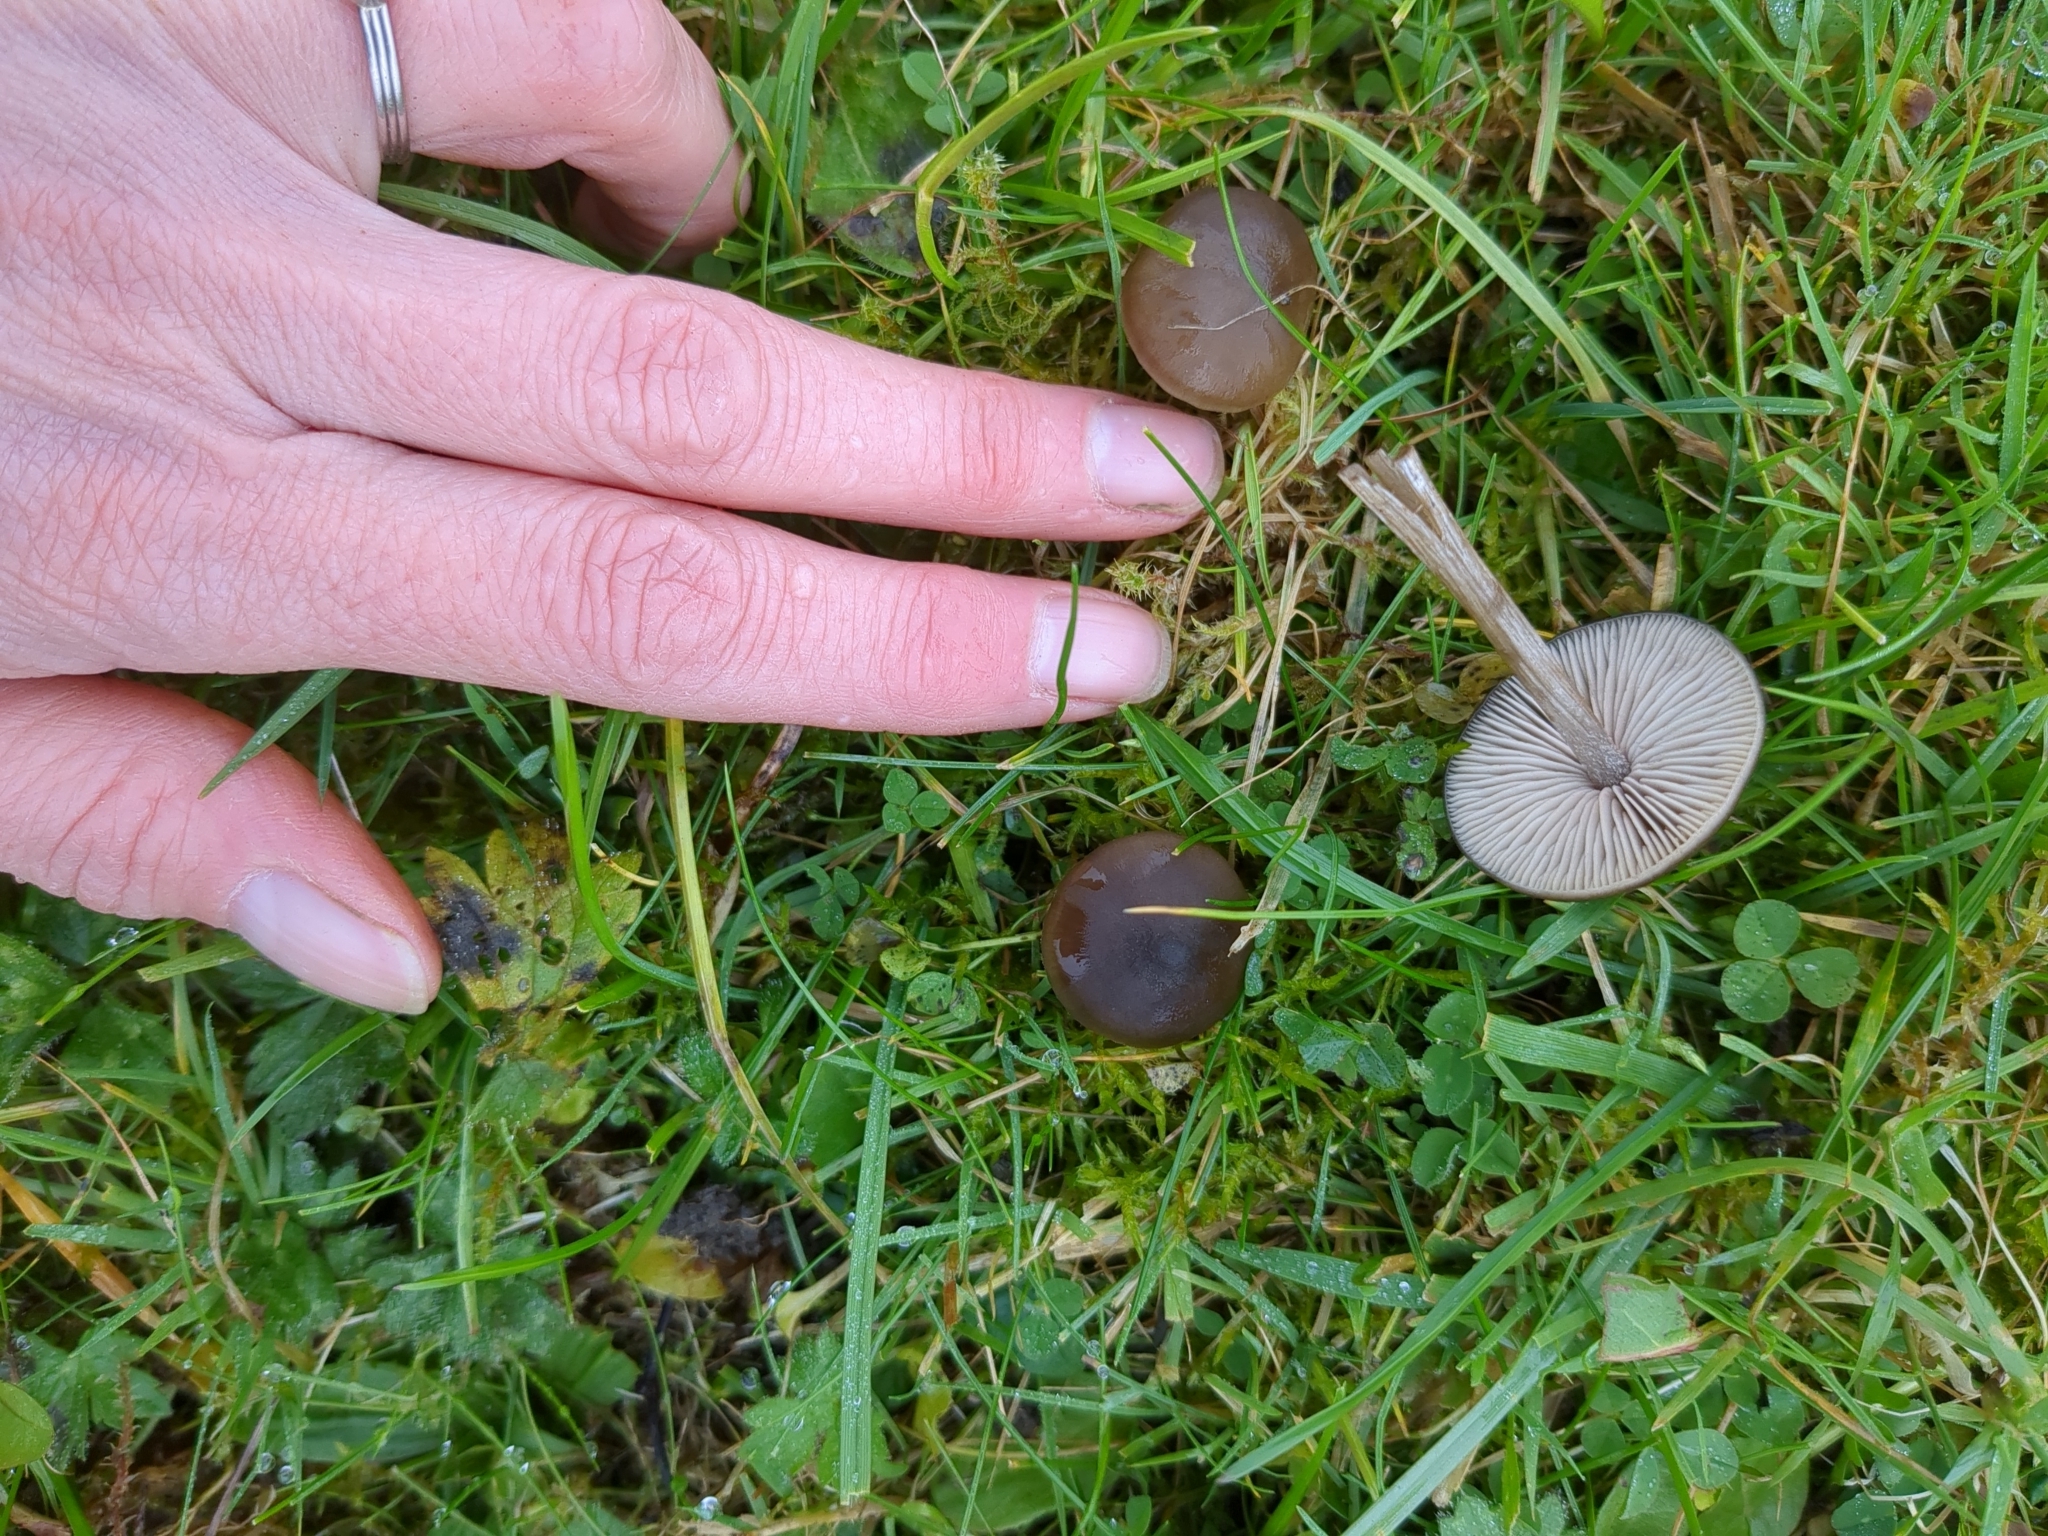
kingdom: Fungi
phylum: Basidiomycota
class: Agaricomycetes
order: Agaricales
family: Entolomataceae
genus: Entoloma
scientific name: Entoloma sericeum
